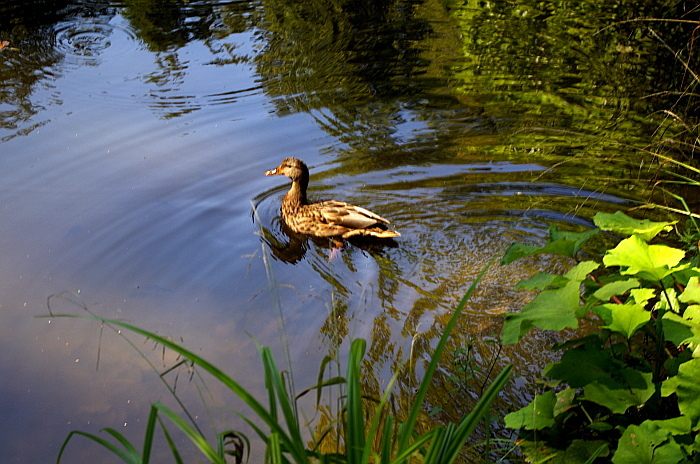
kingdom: Animalia
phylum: Chordata
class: Aves
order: Anseriformes
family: Anatidae
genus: Anas
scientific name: Anas platyrhynchos
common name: Mallard
